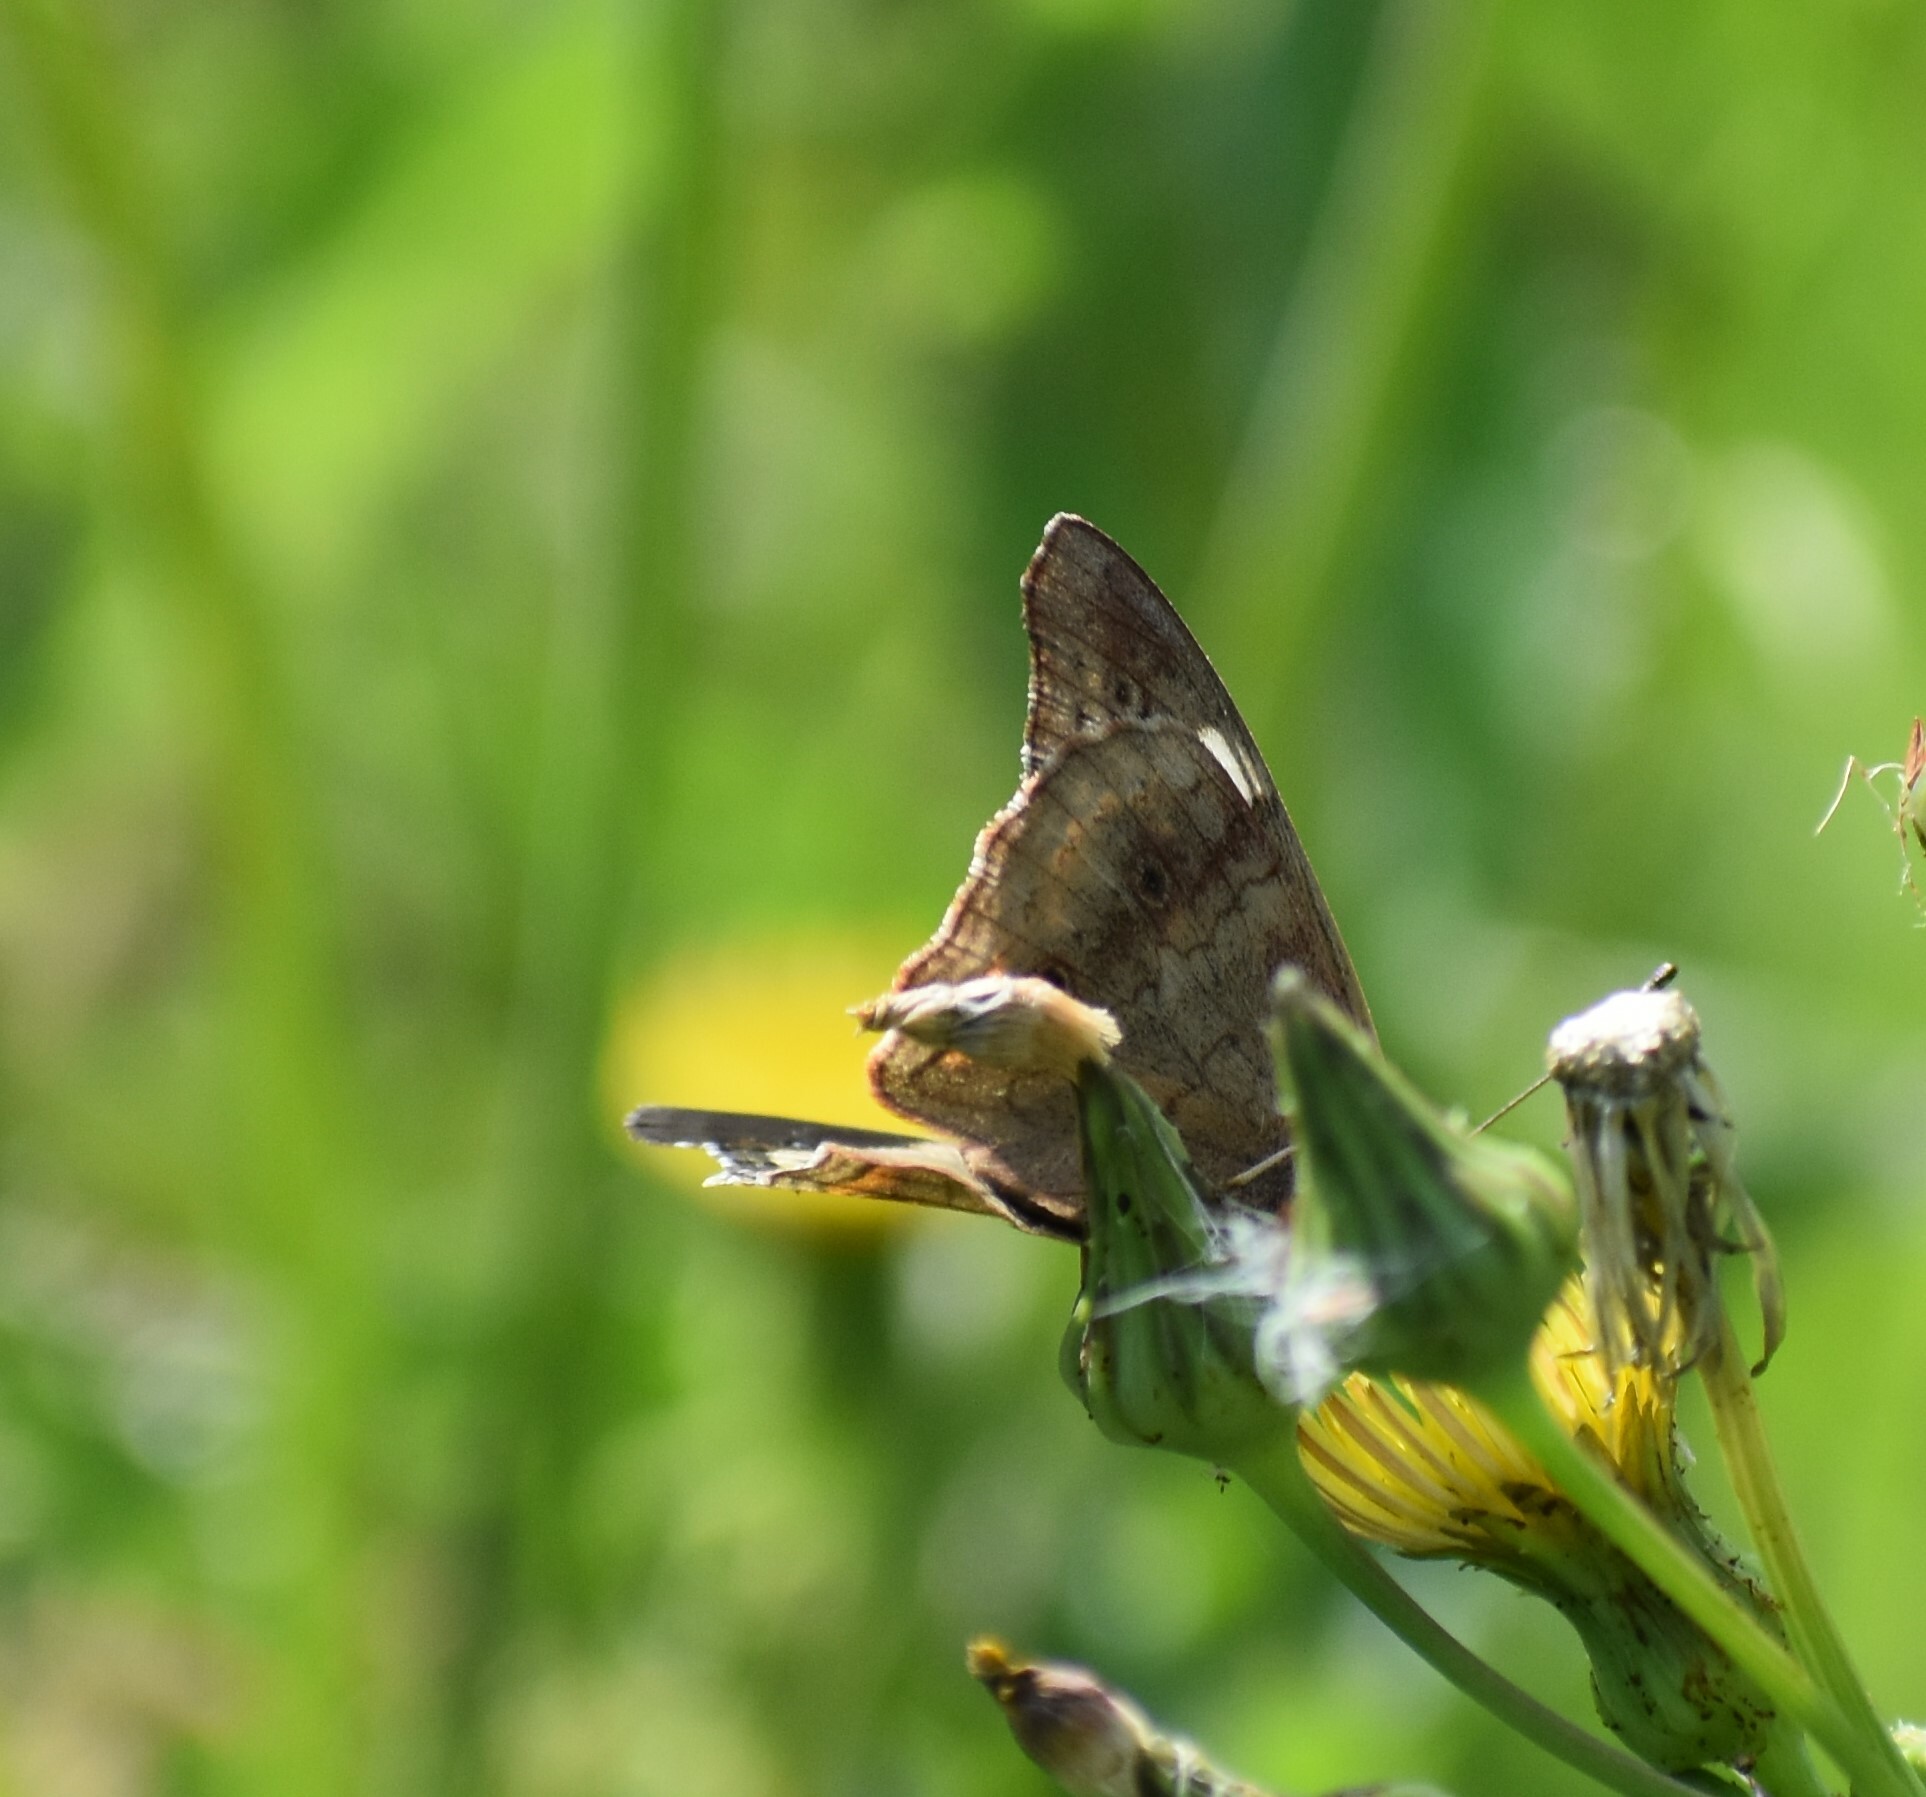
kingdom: Animalia
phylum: Arthropoda
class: Insecta
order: Lepidoptera
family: Nymphalidae
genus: Junonia
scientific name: Junonia coenia
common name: Common buckeye
